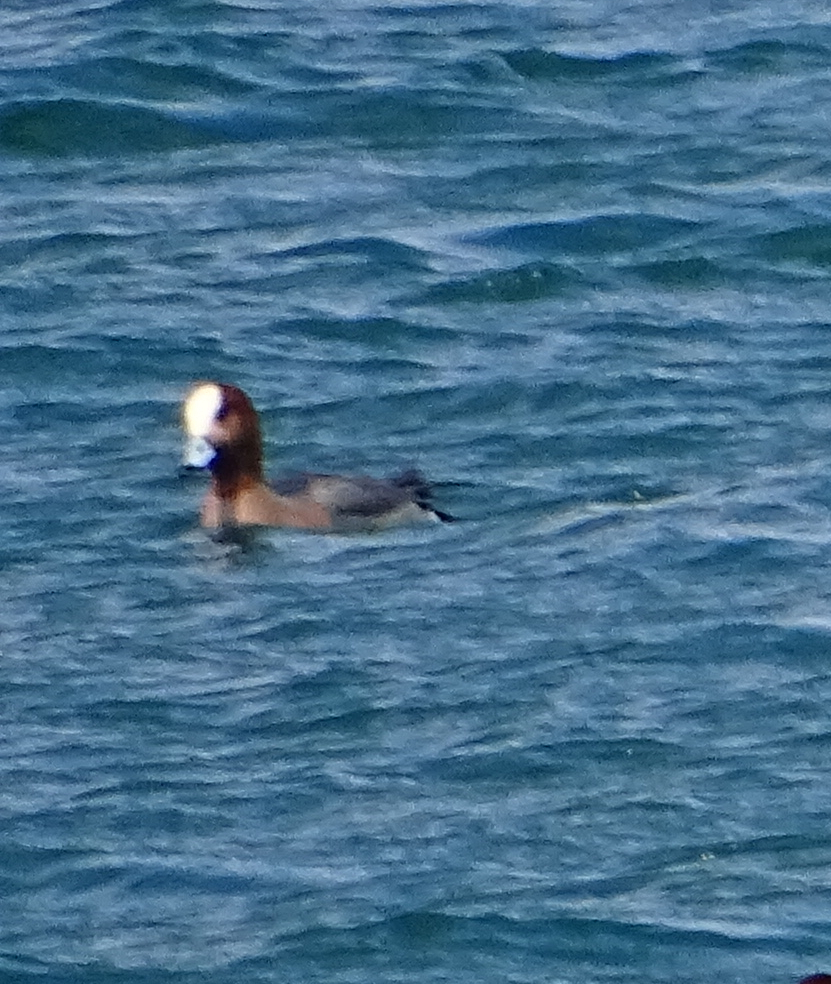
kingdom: Animalia
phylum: Chordata
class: Aves
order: Anseriformes
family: Anatidae
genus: Mareca
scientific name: Mareca penelope
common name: Eurasian wigeon
